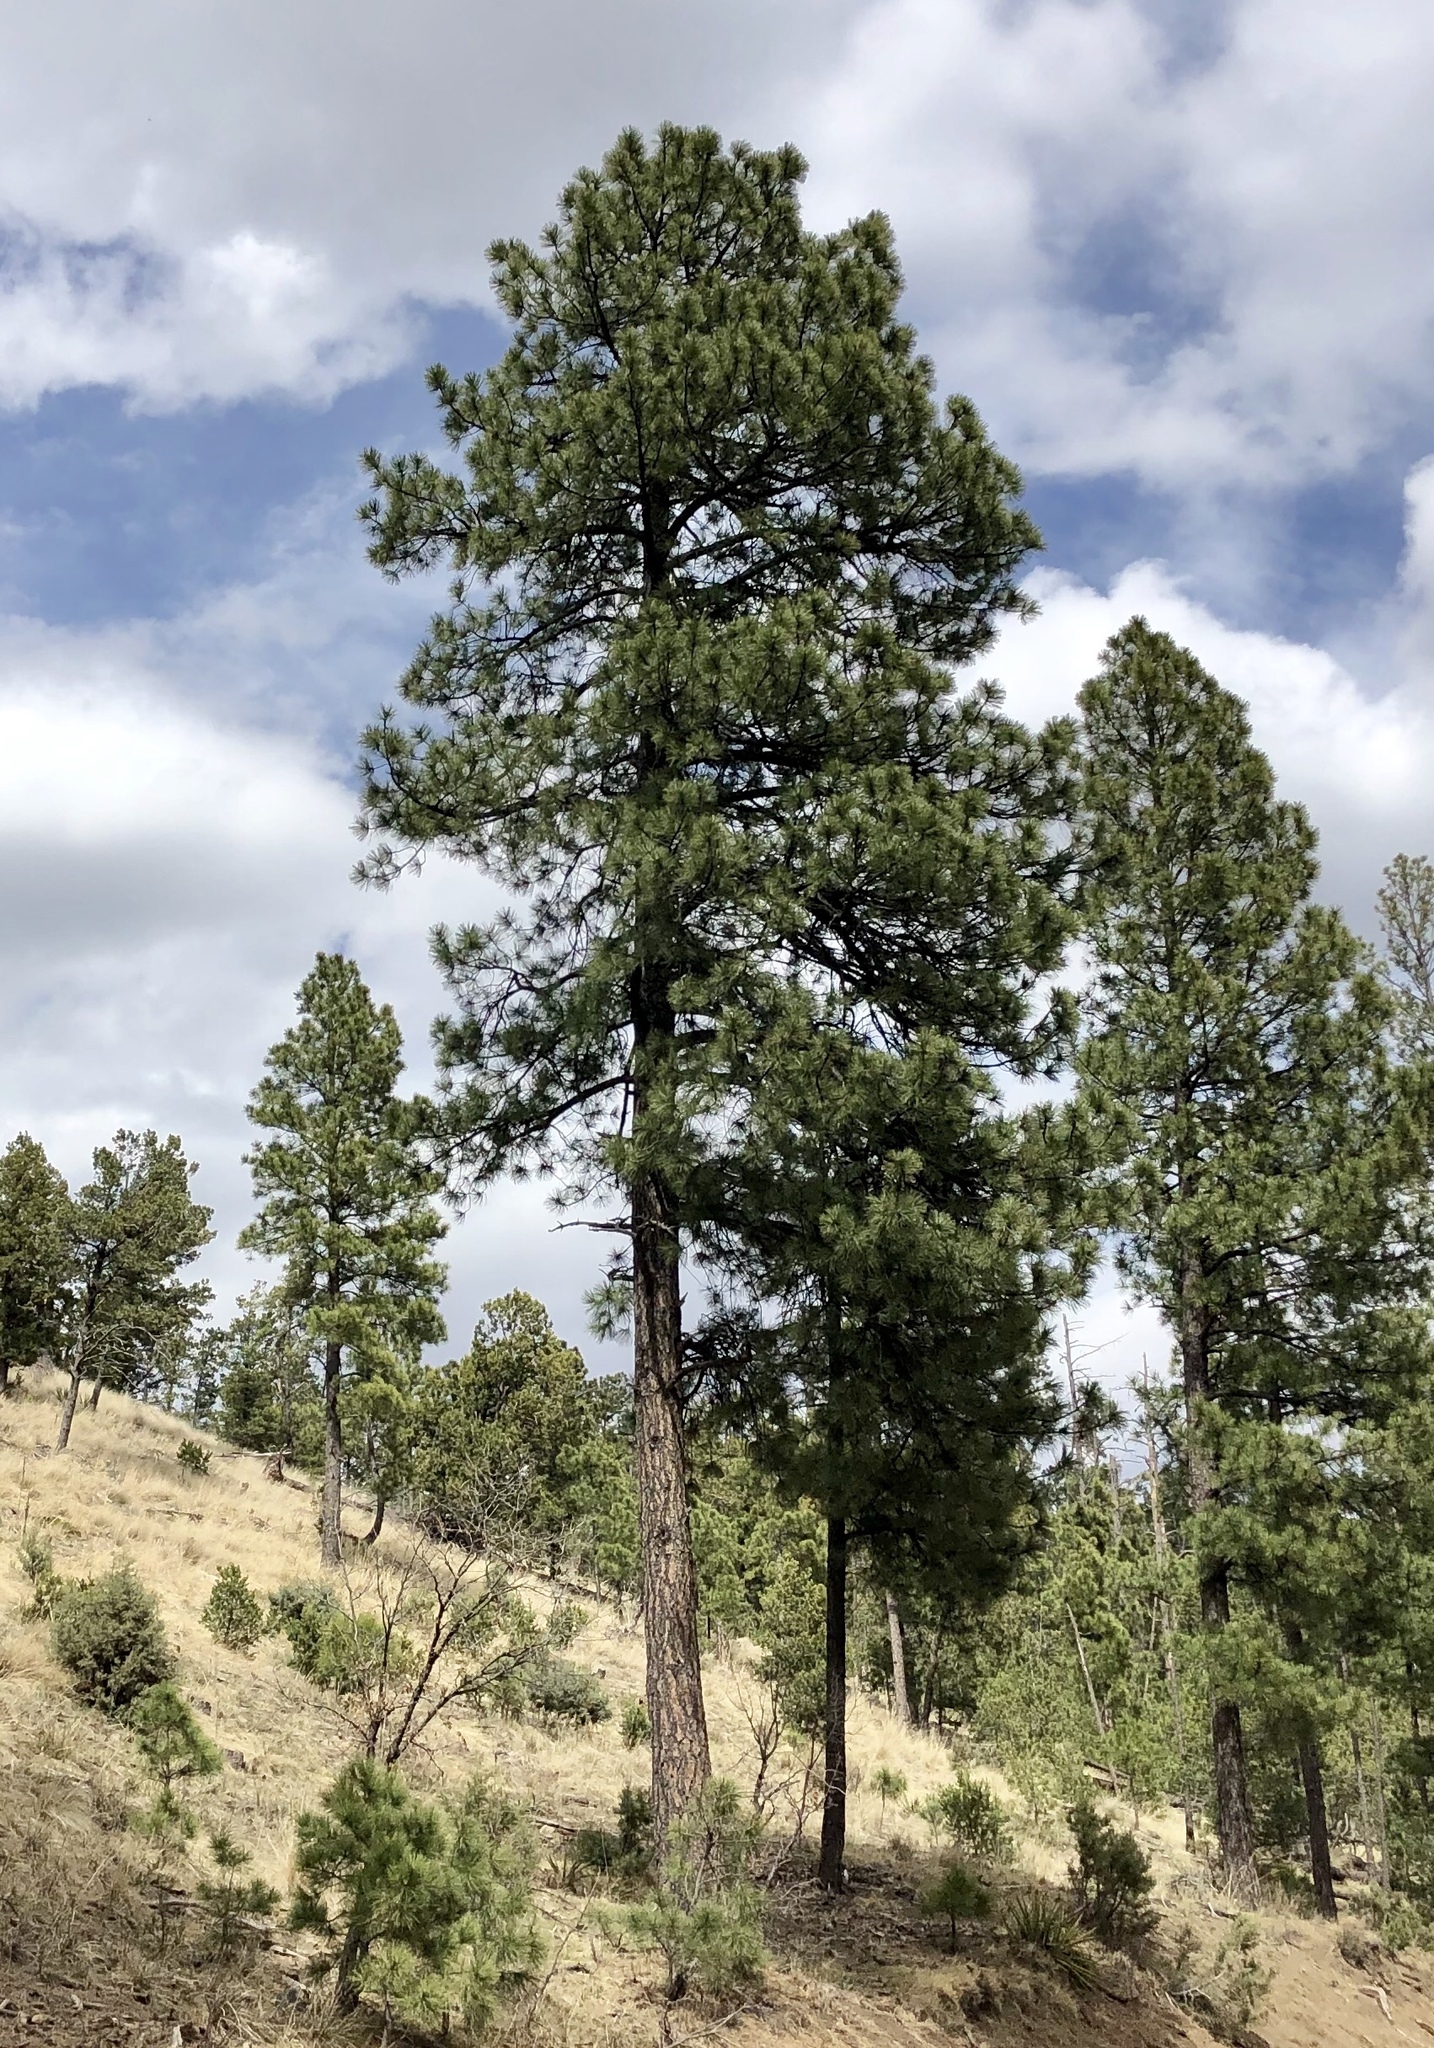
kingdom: Plantae
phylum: Tracheophyta
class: Pinopsida
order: Pinales
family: Pinaceae
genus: Pinus
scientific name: Pinus ponderosa
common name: Western yellow-pine
